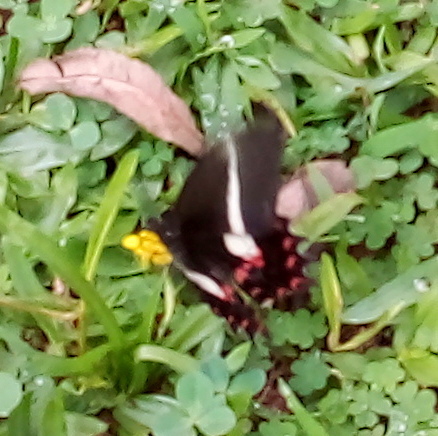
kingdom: Animalia
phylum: Arthropoda
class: Insecta
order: Lepidoptera
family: Papilionidae
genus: Heraclides
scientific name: Heraclides hectorides
